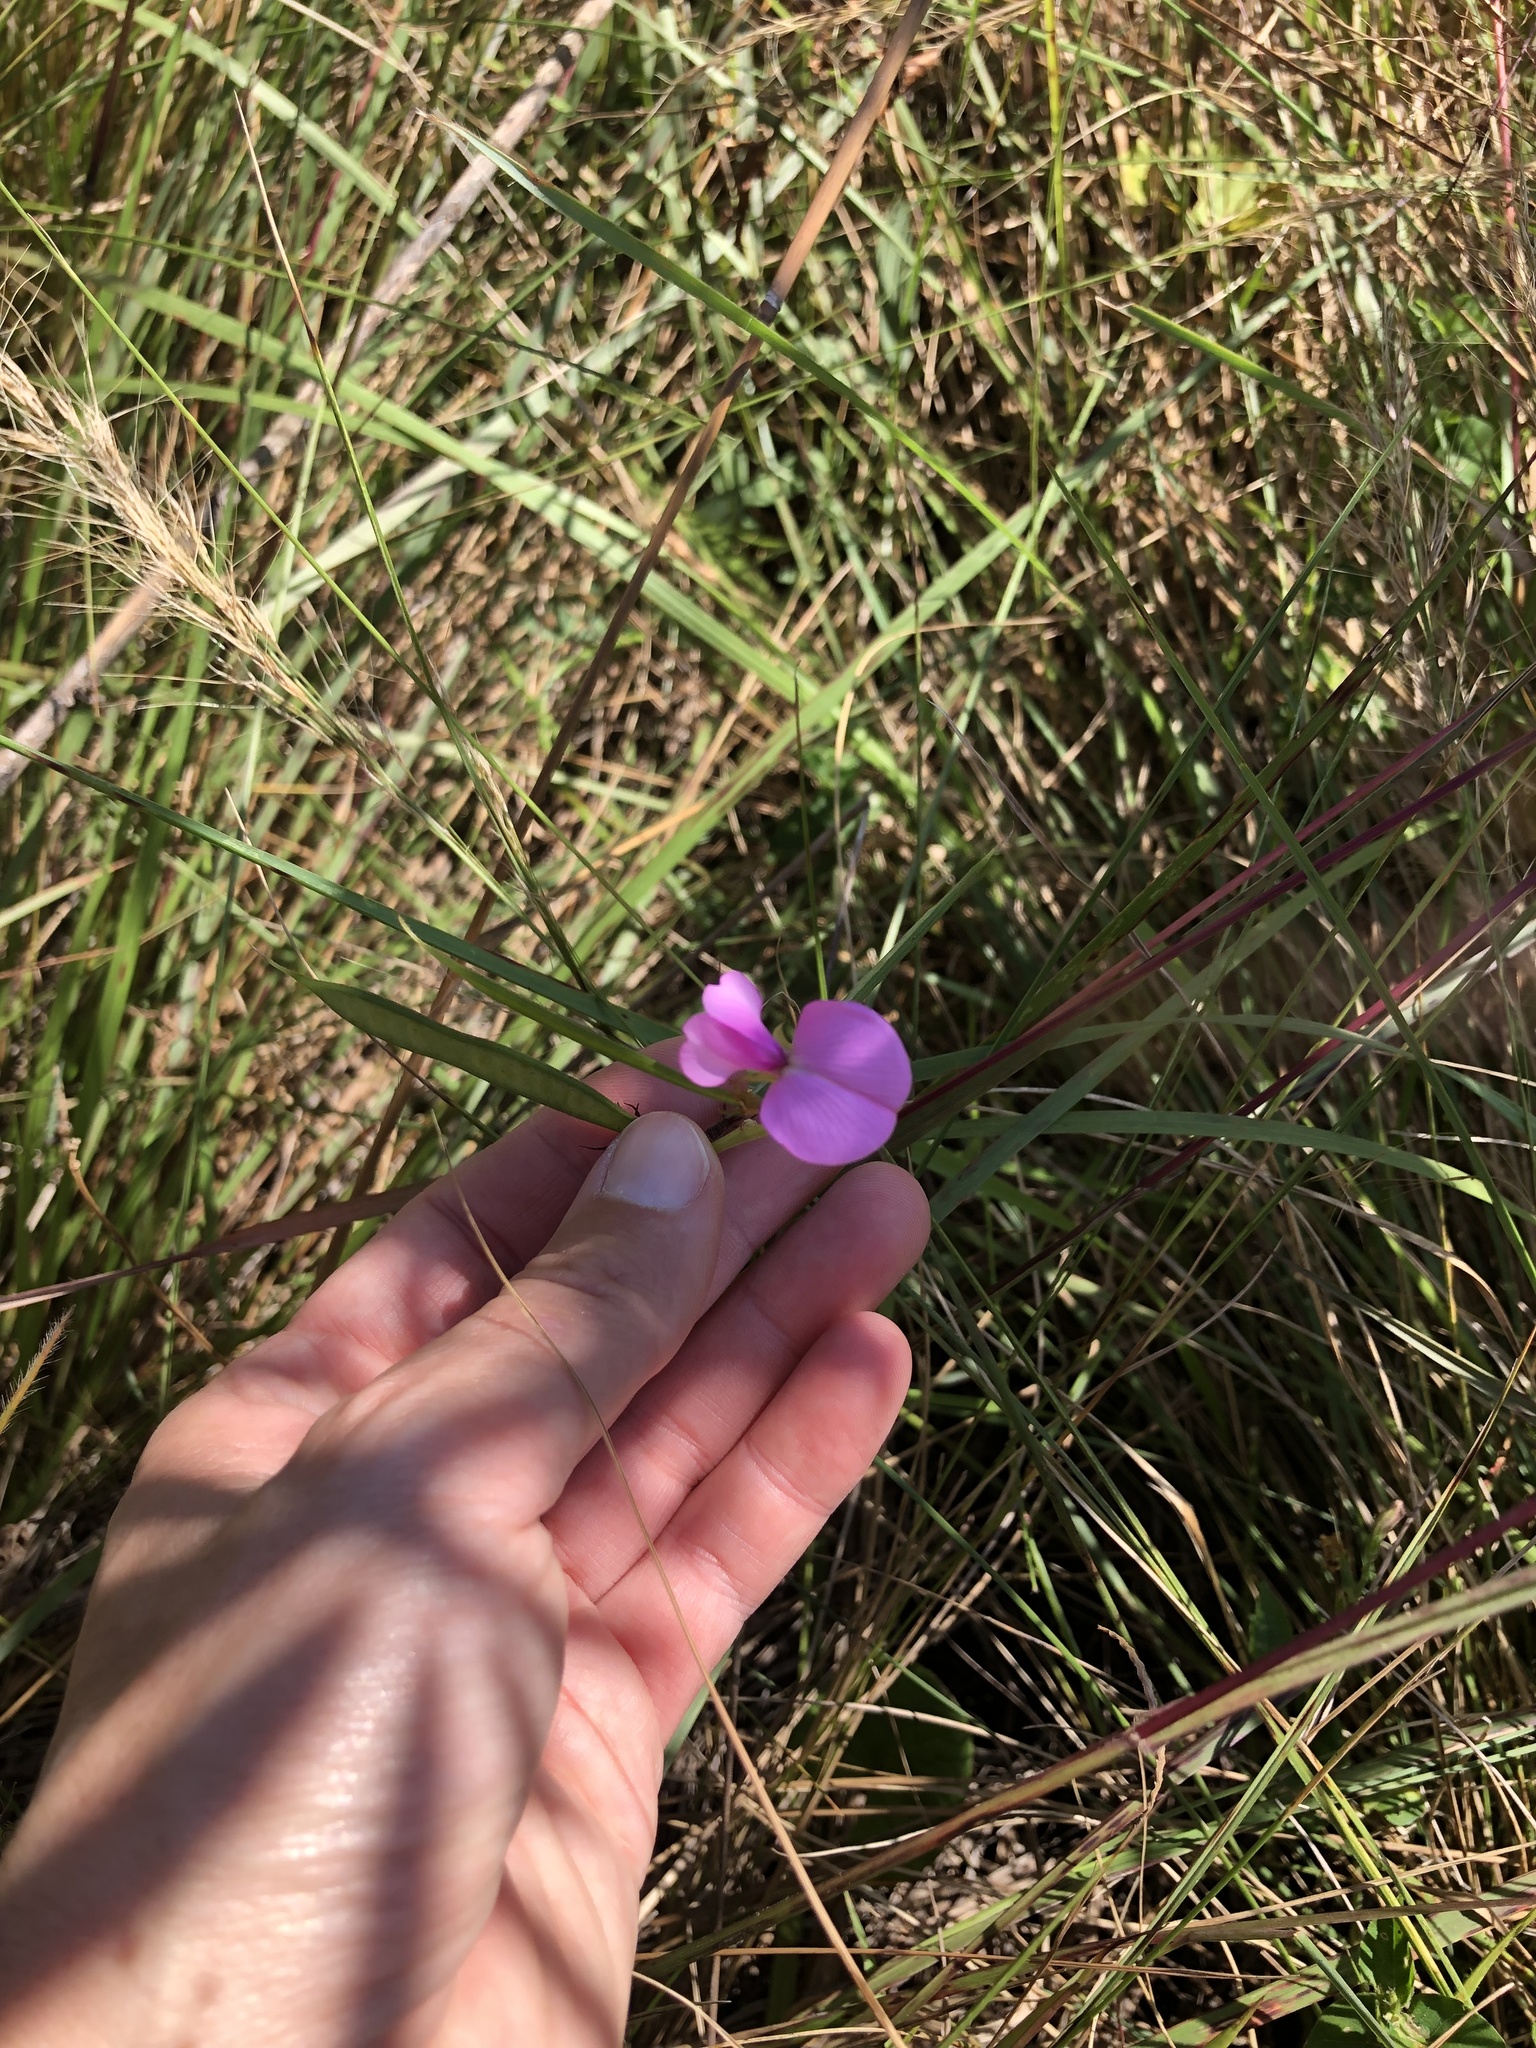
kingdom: Plantae
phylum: Tracheophyta
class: Magnoliopsida
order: Fabales
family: Fabaceae
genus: Vigna
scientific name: Vigna vexillata
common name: Zombi pea
